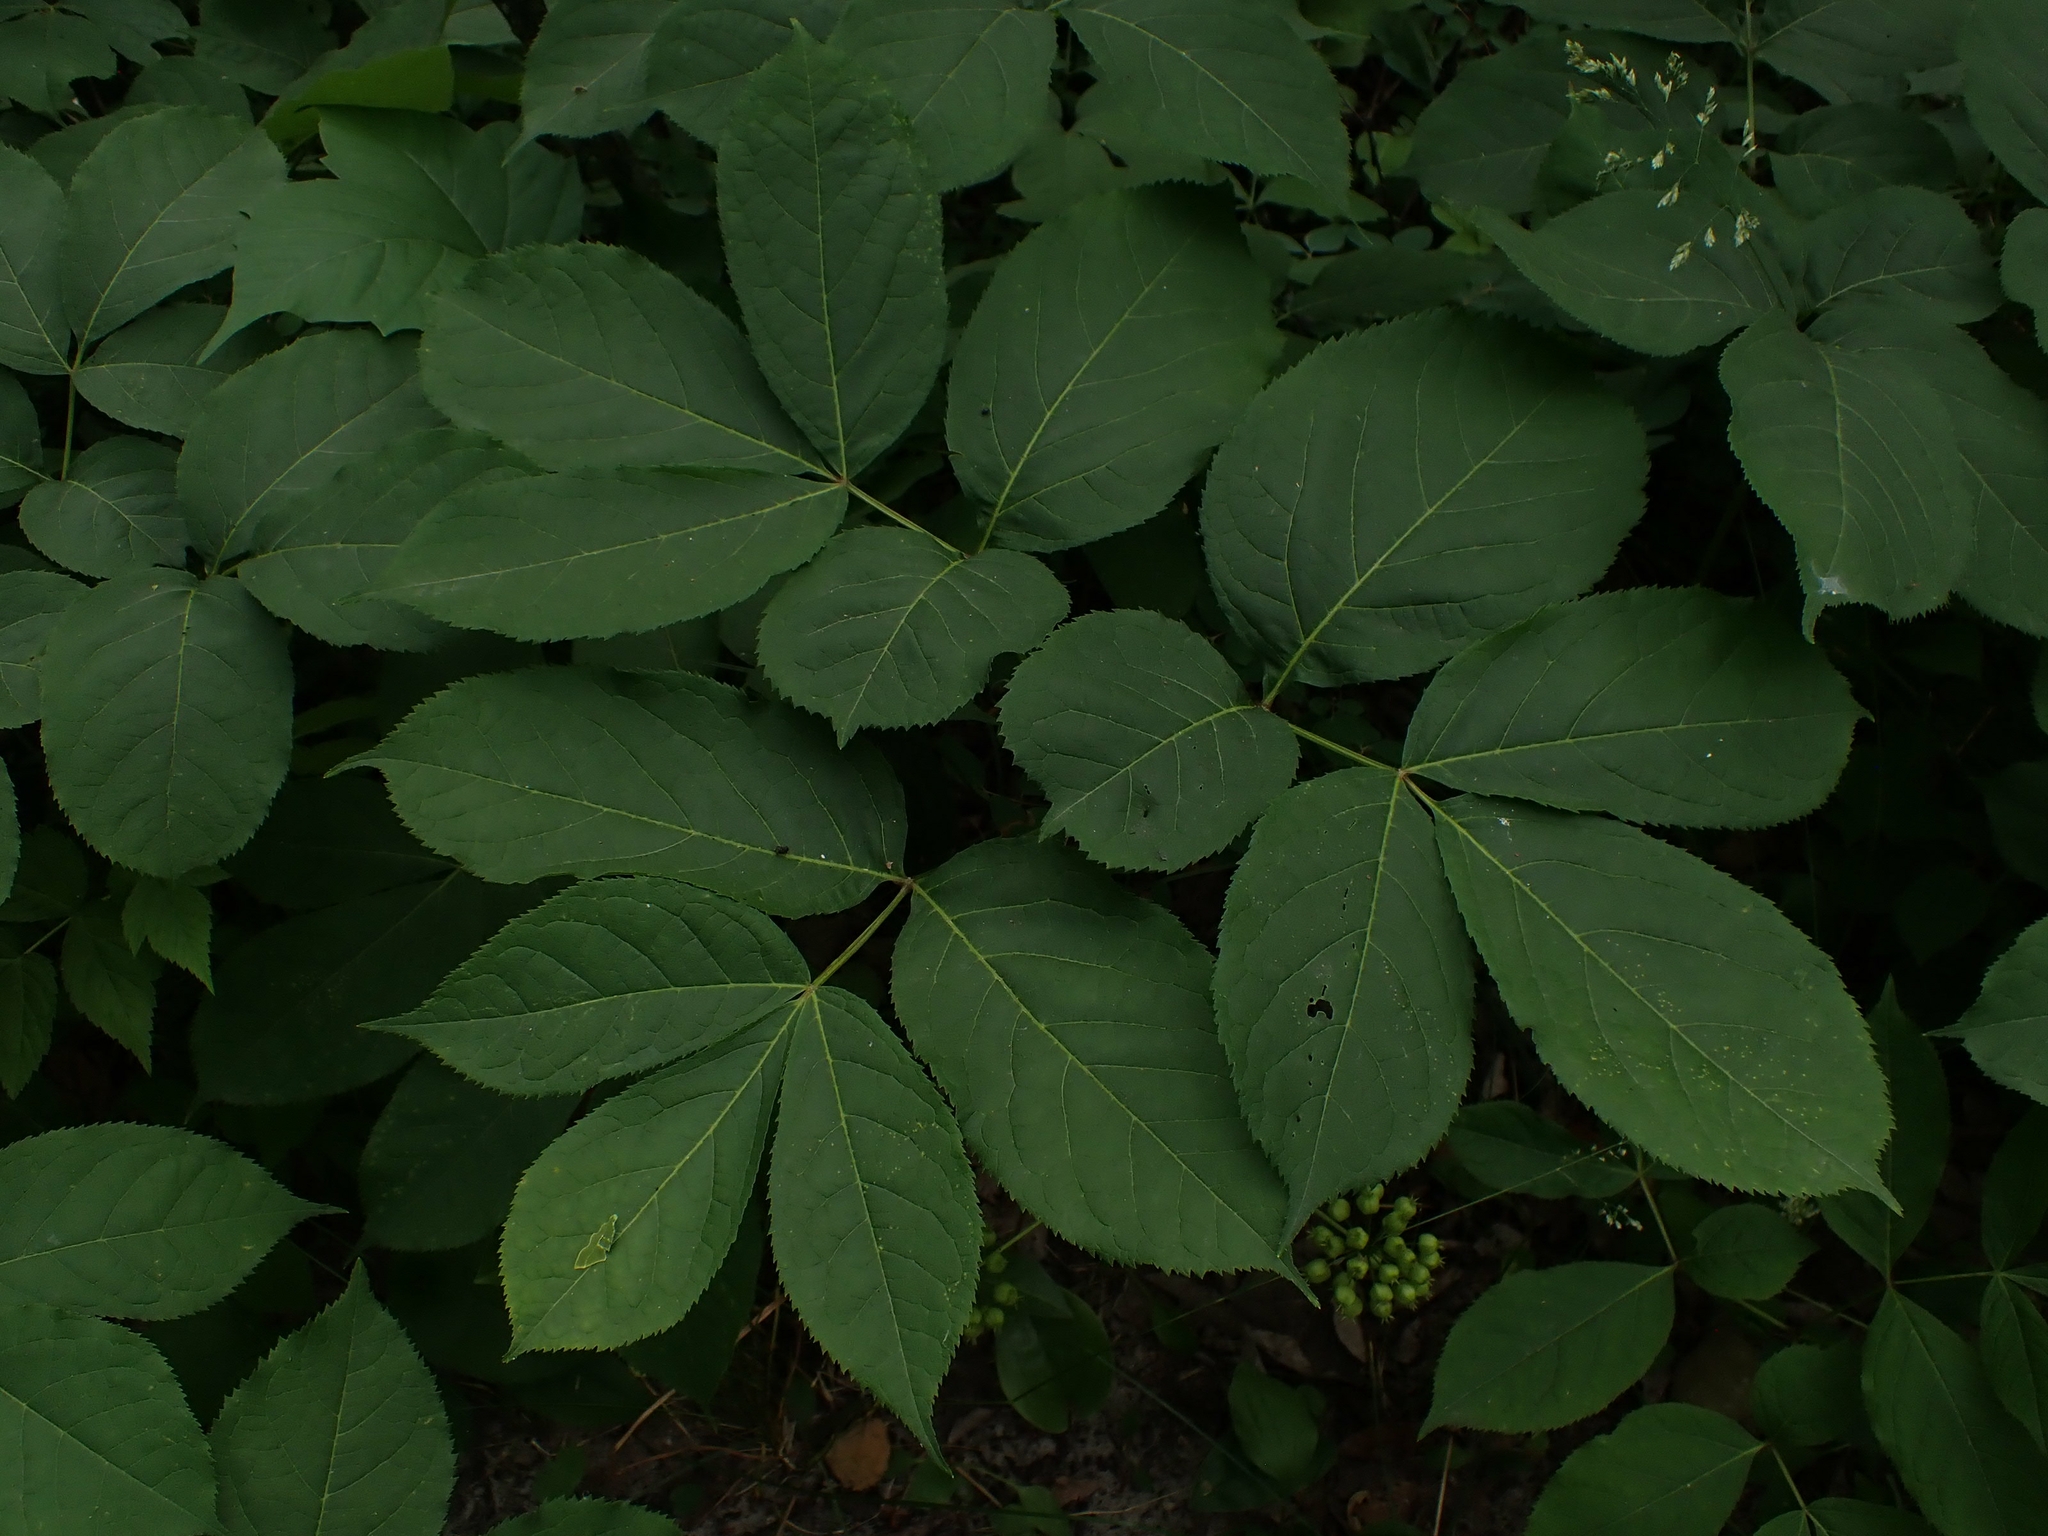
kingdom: Plantae
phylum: Tracheophyta
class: Magnoliopsida
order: Apiales
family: Araliaceae
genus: Aralia
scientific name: Aralia nudicaulis
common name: Wild sarsaparilla
